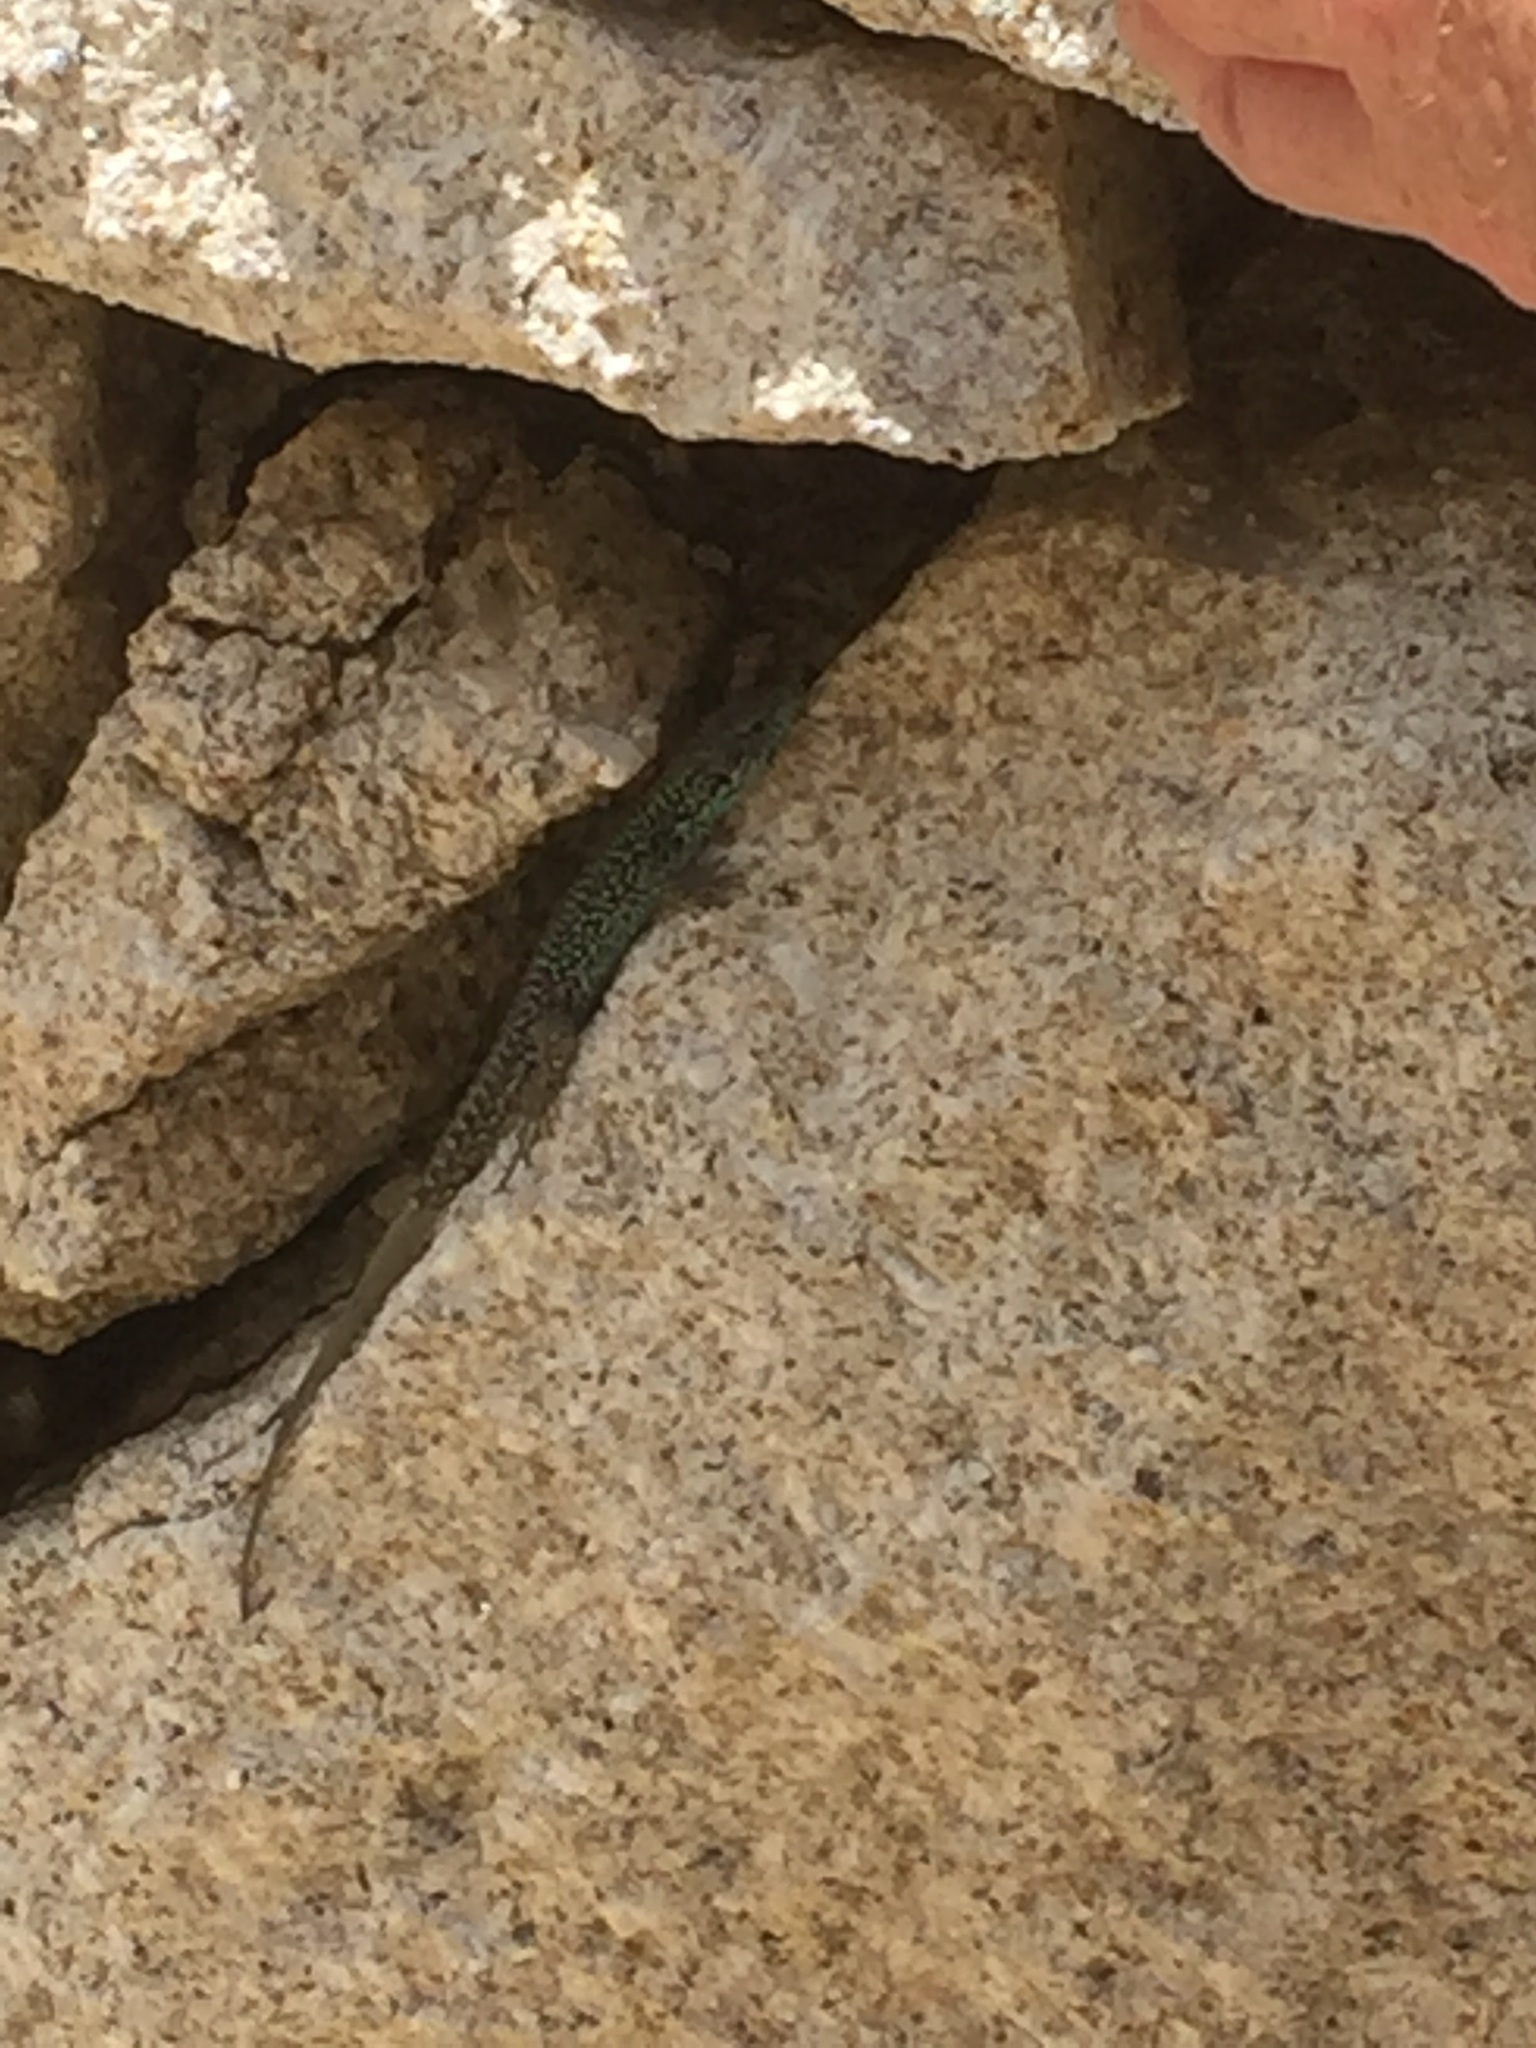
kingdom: Animalia
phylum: Chordata
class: Squamata
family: Lacertidae
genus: Iberolacerta
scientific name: Iberolacerta monticola
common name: Iberian mountain lizard
